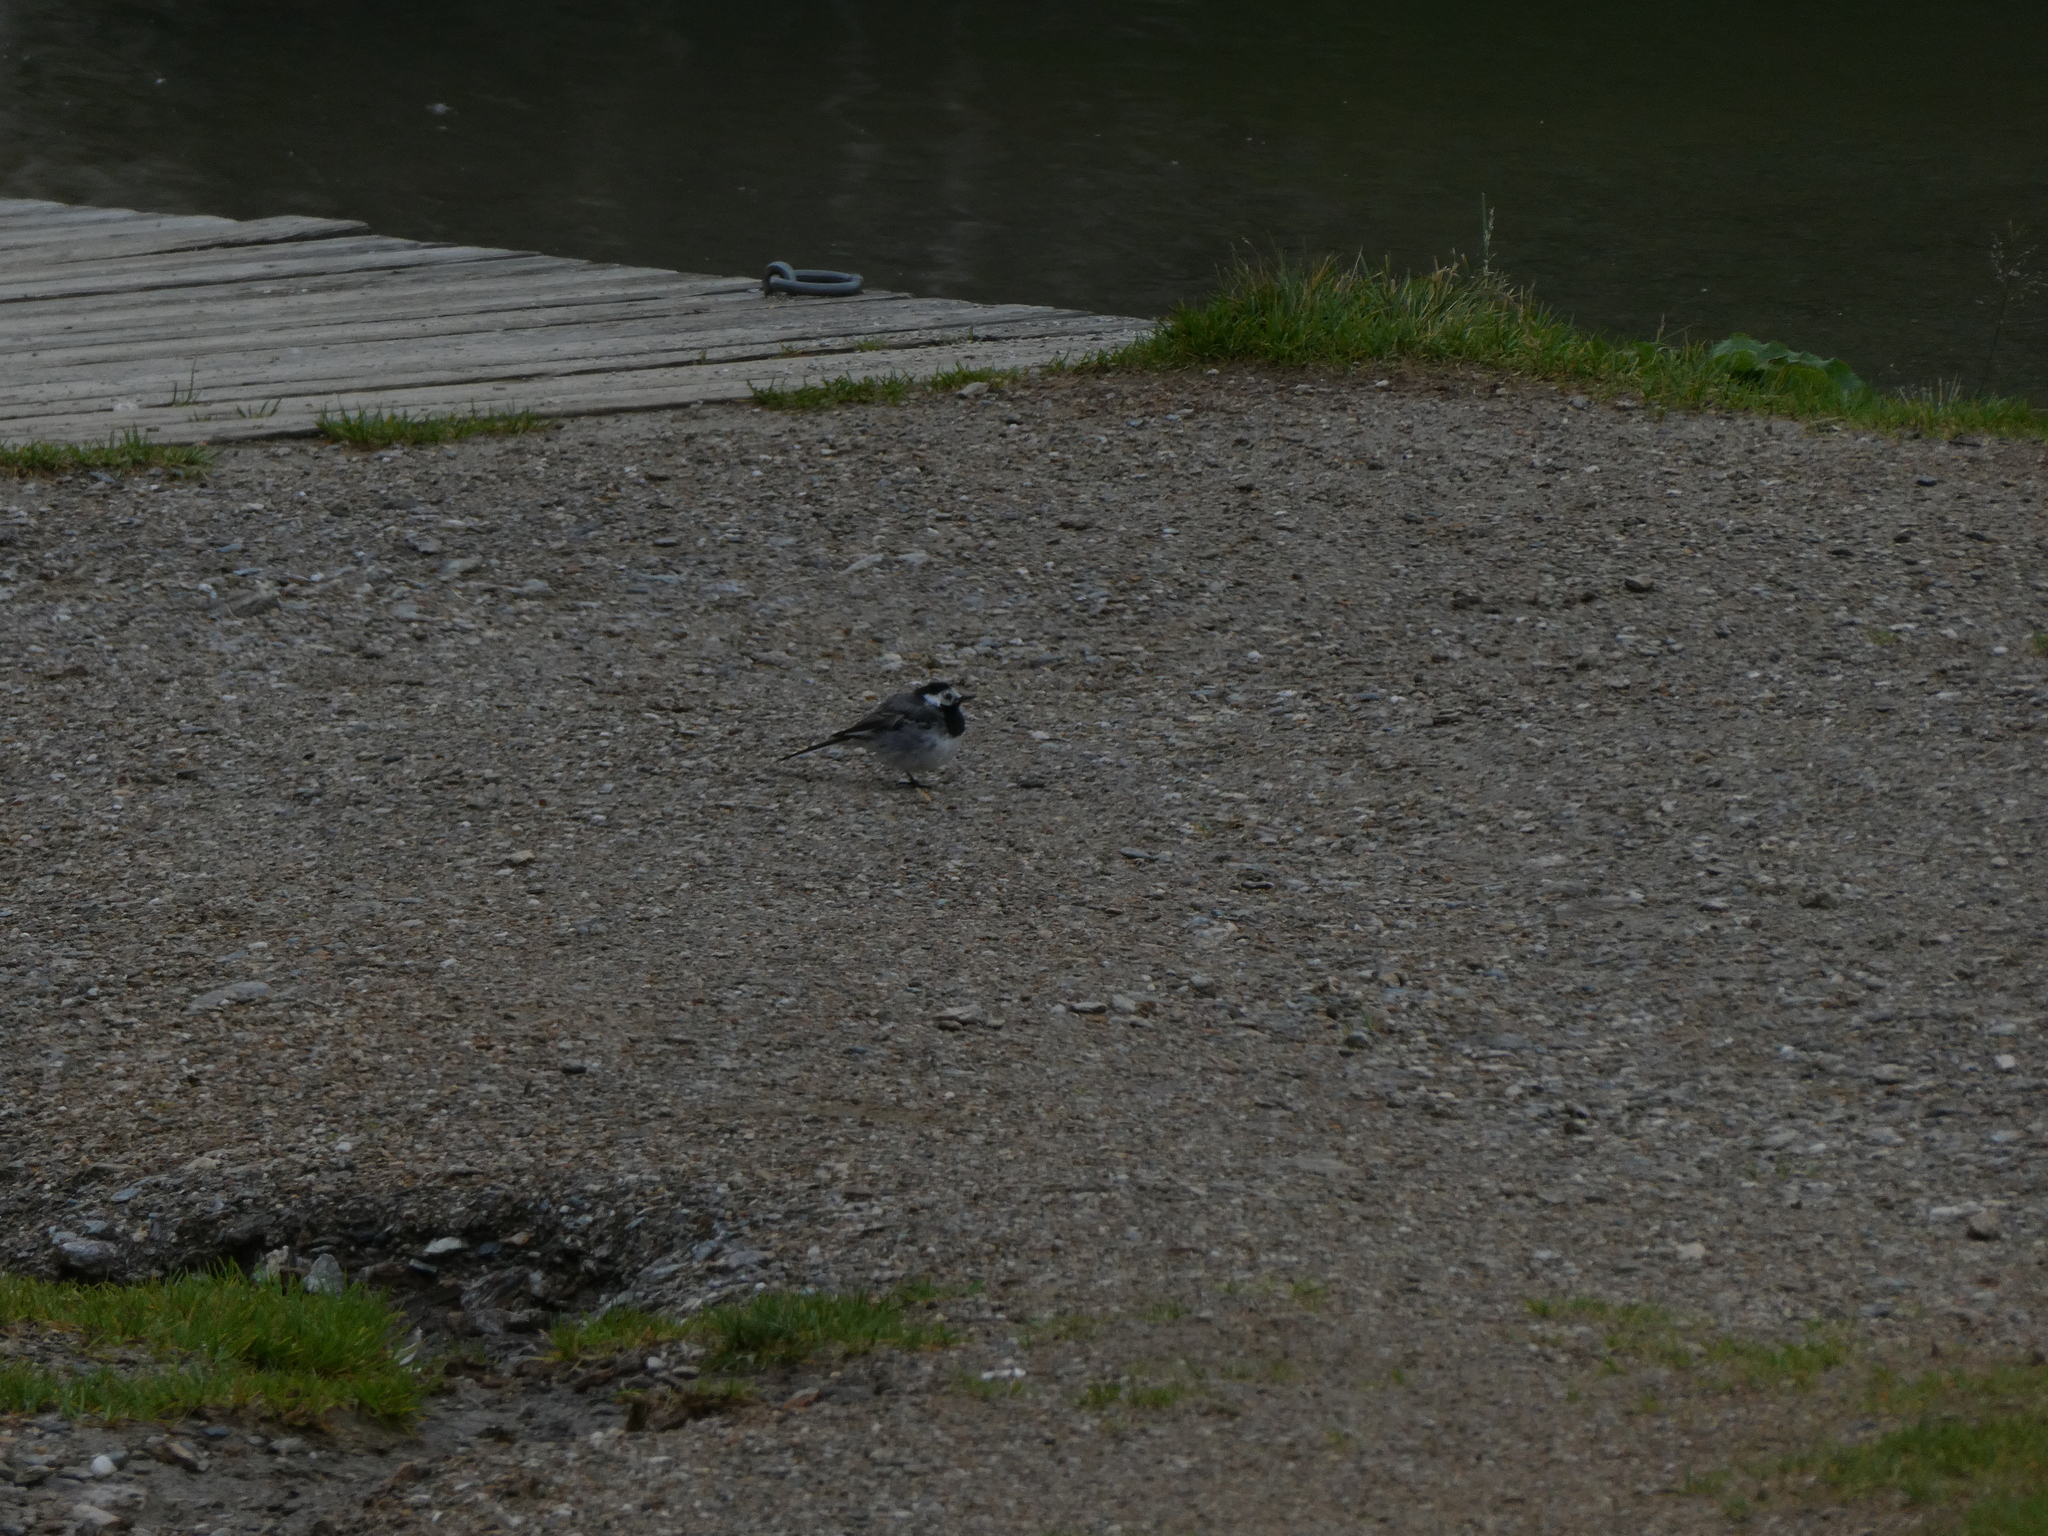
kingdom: Animalia
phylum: Chordata
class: Aves
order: Passeriformes
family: Motacillidae
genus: Motacilla
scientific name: Motacilla alba
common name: White wagtail
